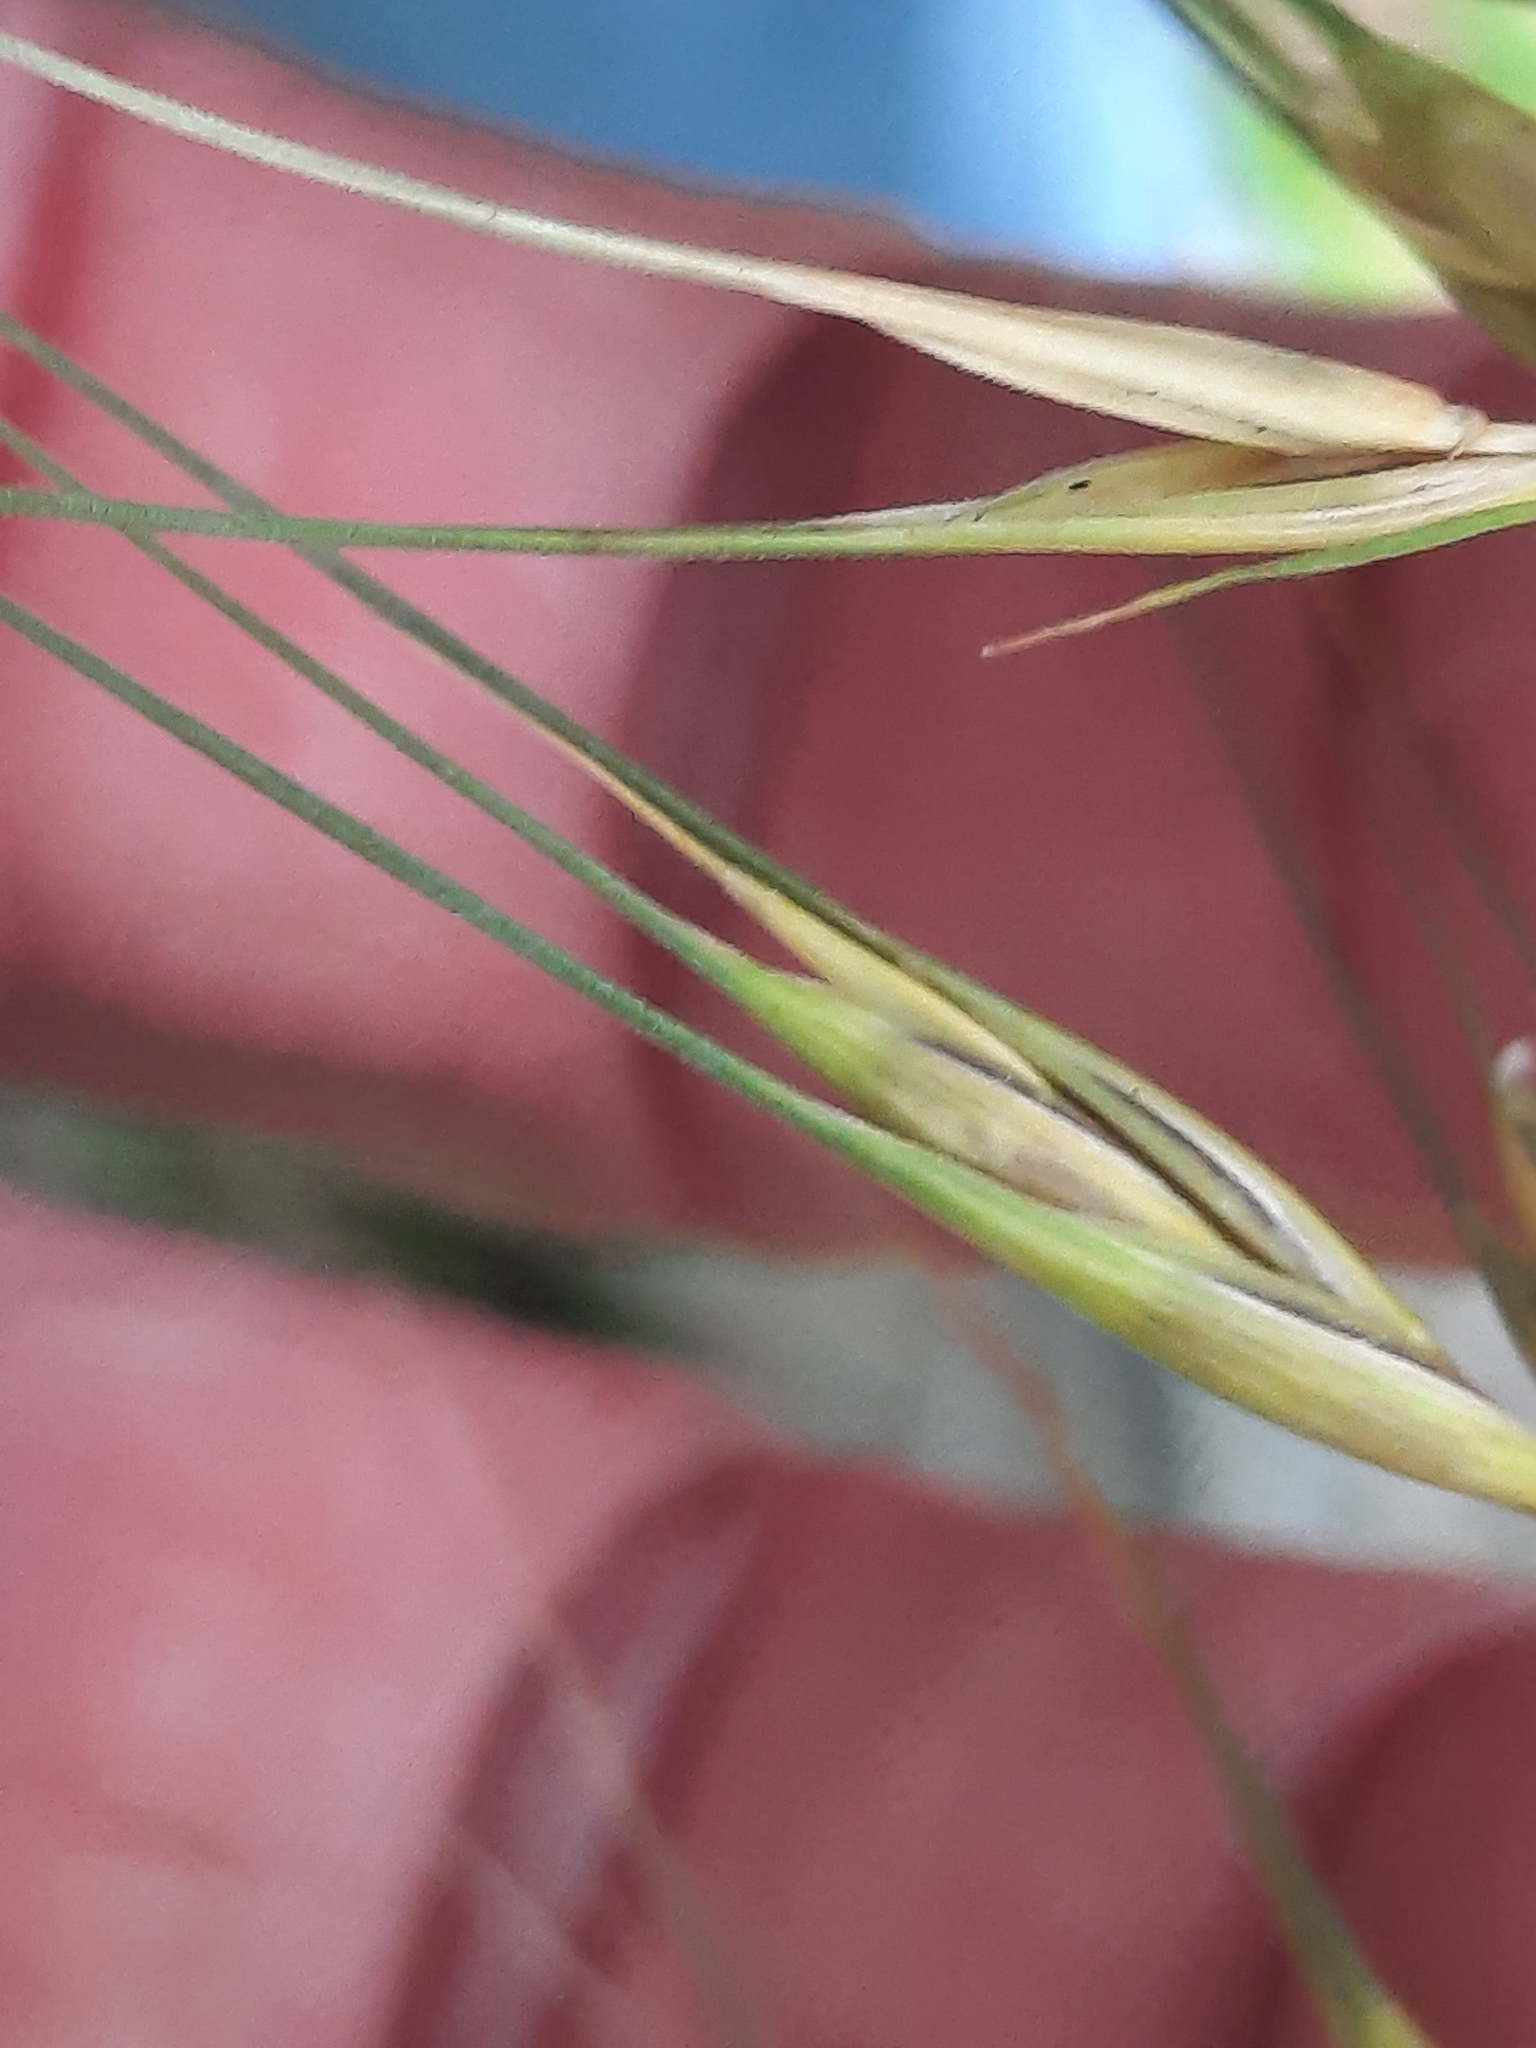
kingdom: Plantae
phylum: Tracheophyta
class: Liliopsida
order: Poales
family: Poaceae
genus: Elymus
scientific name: Elymus hystrix
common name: Bottlebrush grass
